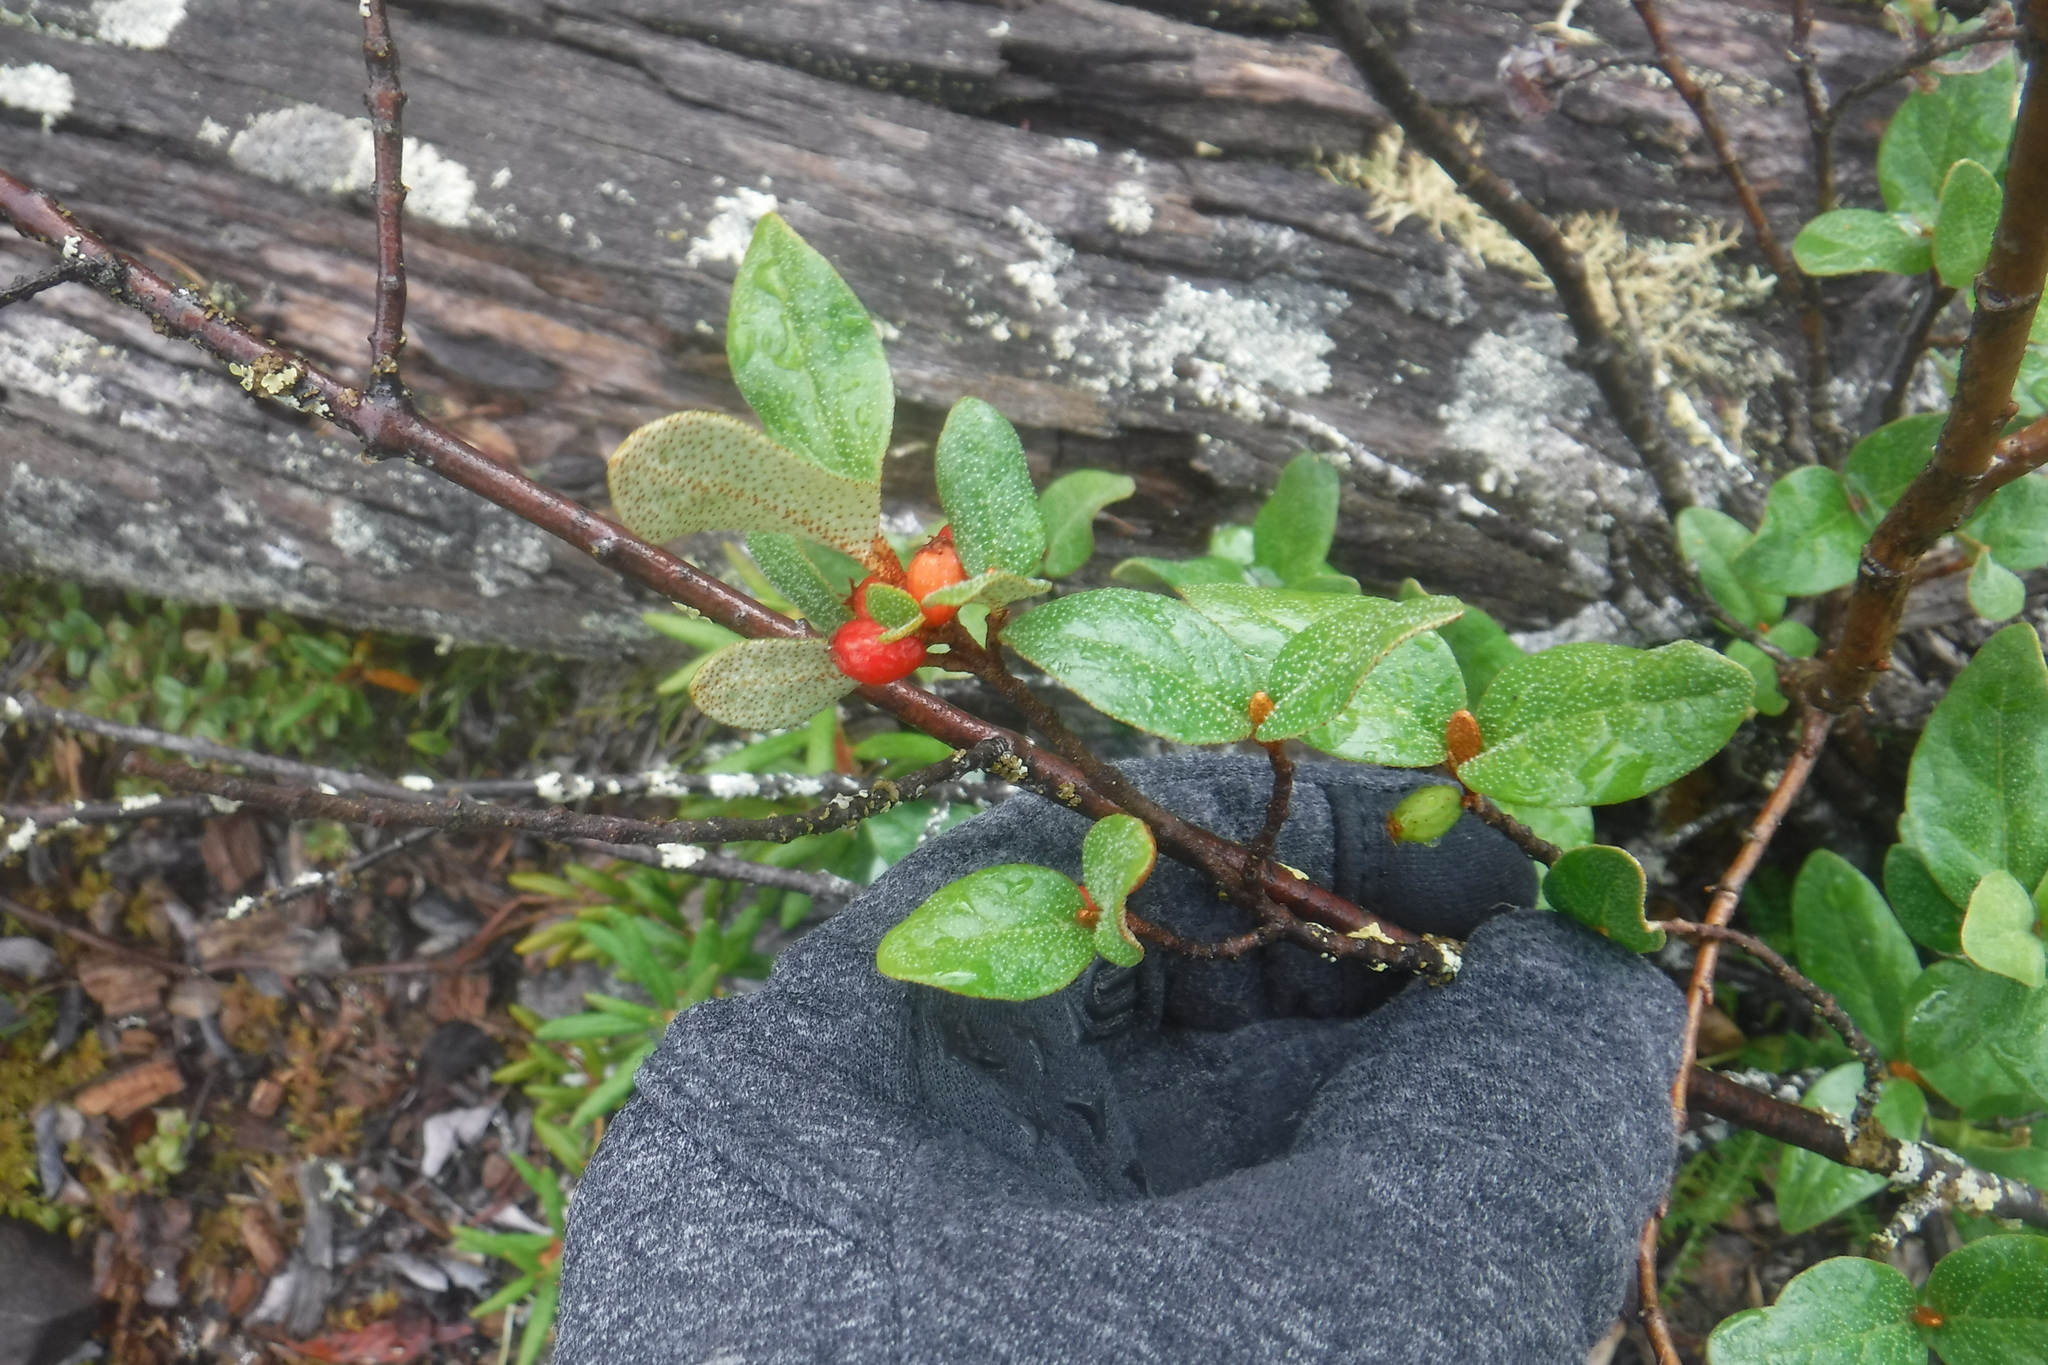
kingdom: Plantae
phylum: Tracheophyta
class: Magnoliopsida
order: Rosales
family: Elaeagnaceae
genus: Shepherdia
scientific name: Shepherdia canadensis
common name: Soapberry
